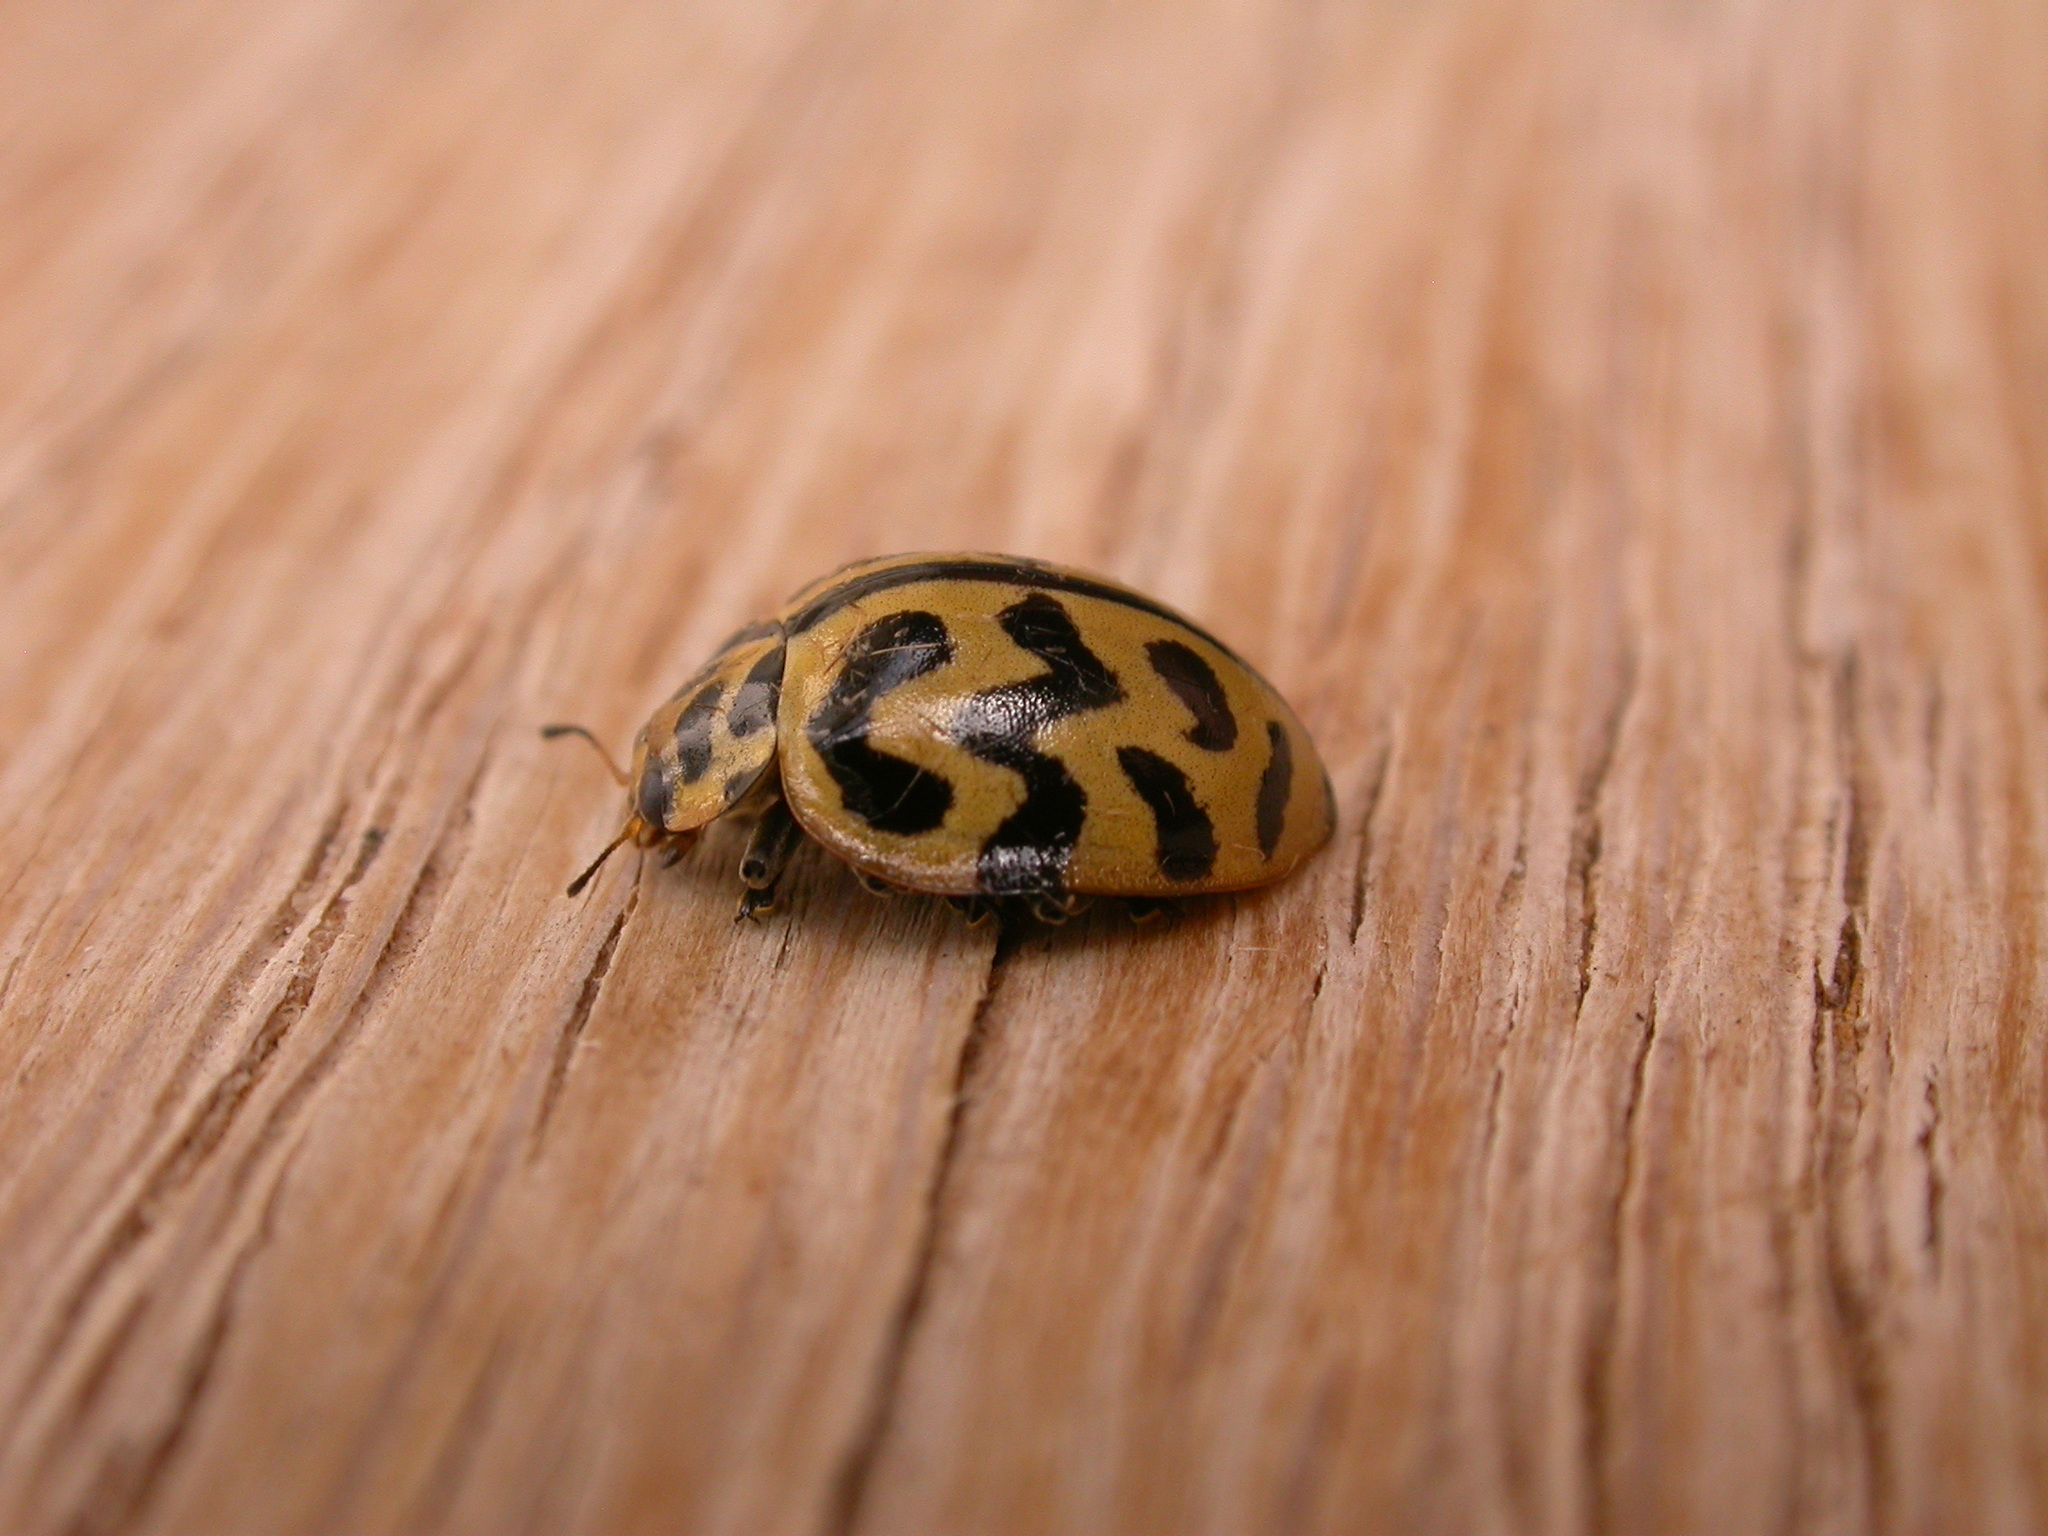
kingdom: Animalia
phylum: Arthropoda
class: Insecta
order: Coleoptera
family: Coccinellidae
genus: Cleobora
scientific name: Cleobora
